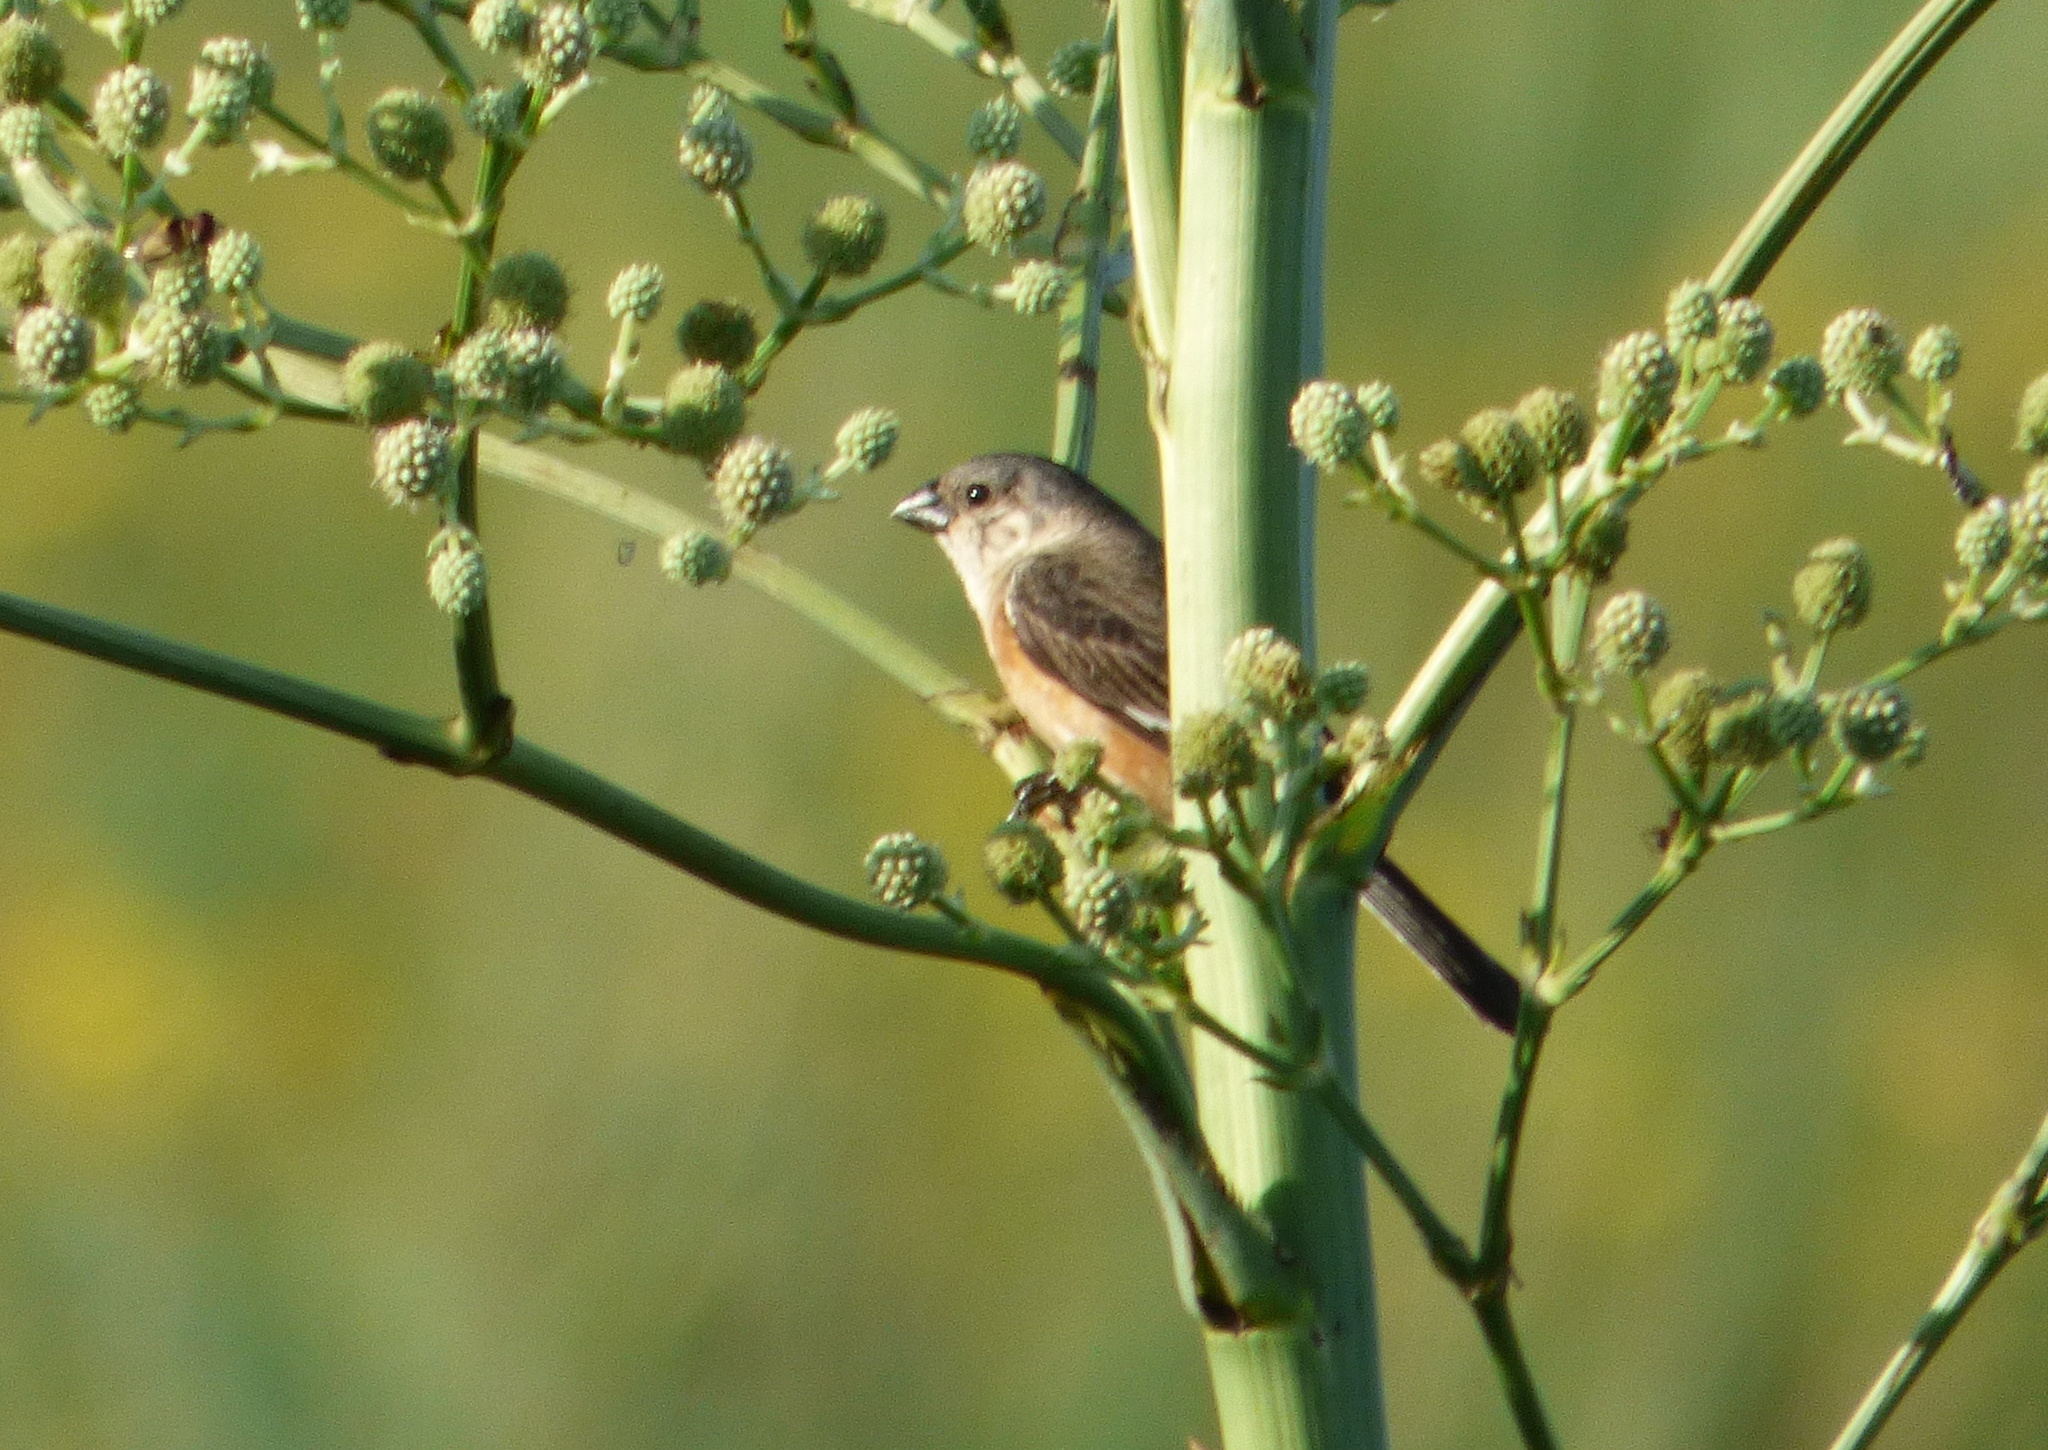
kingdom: Animalia
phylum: Chordata
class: Aves
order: Passeriformes
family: Thraupidae
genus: Sporophila
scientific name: Sporophila palustris
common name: Marsh seedeater
